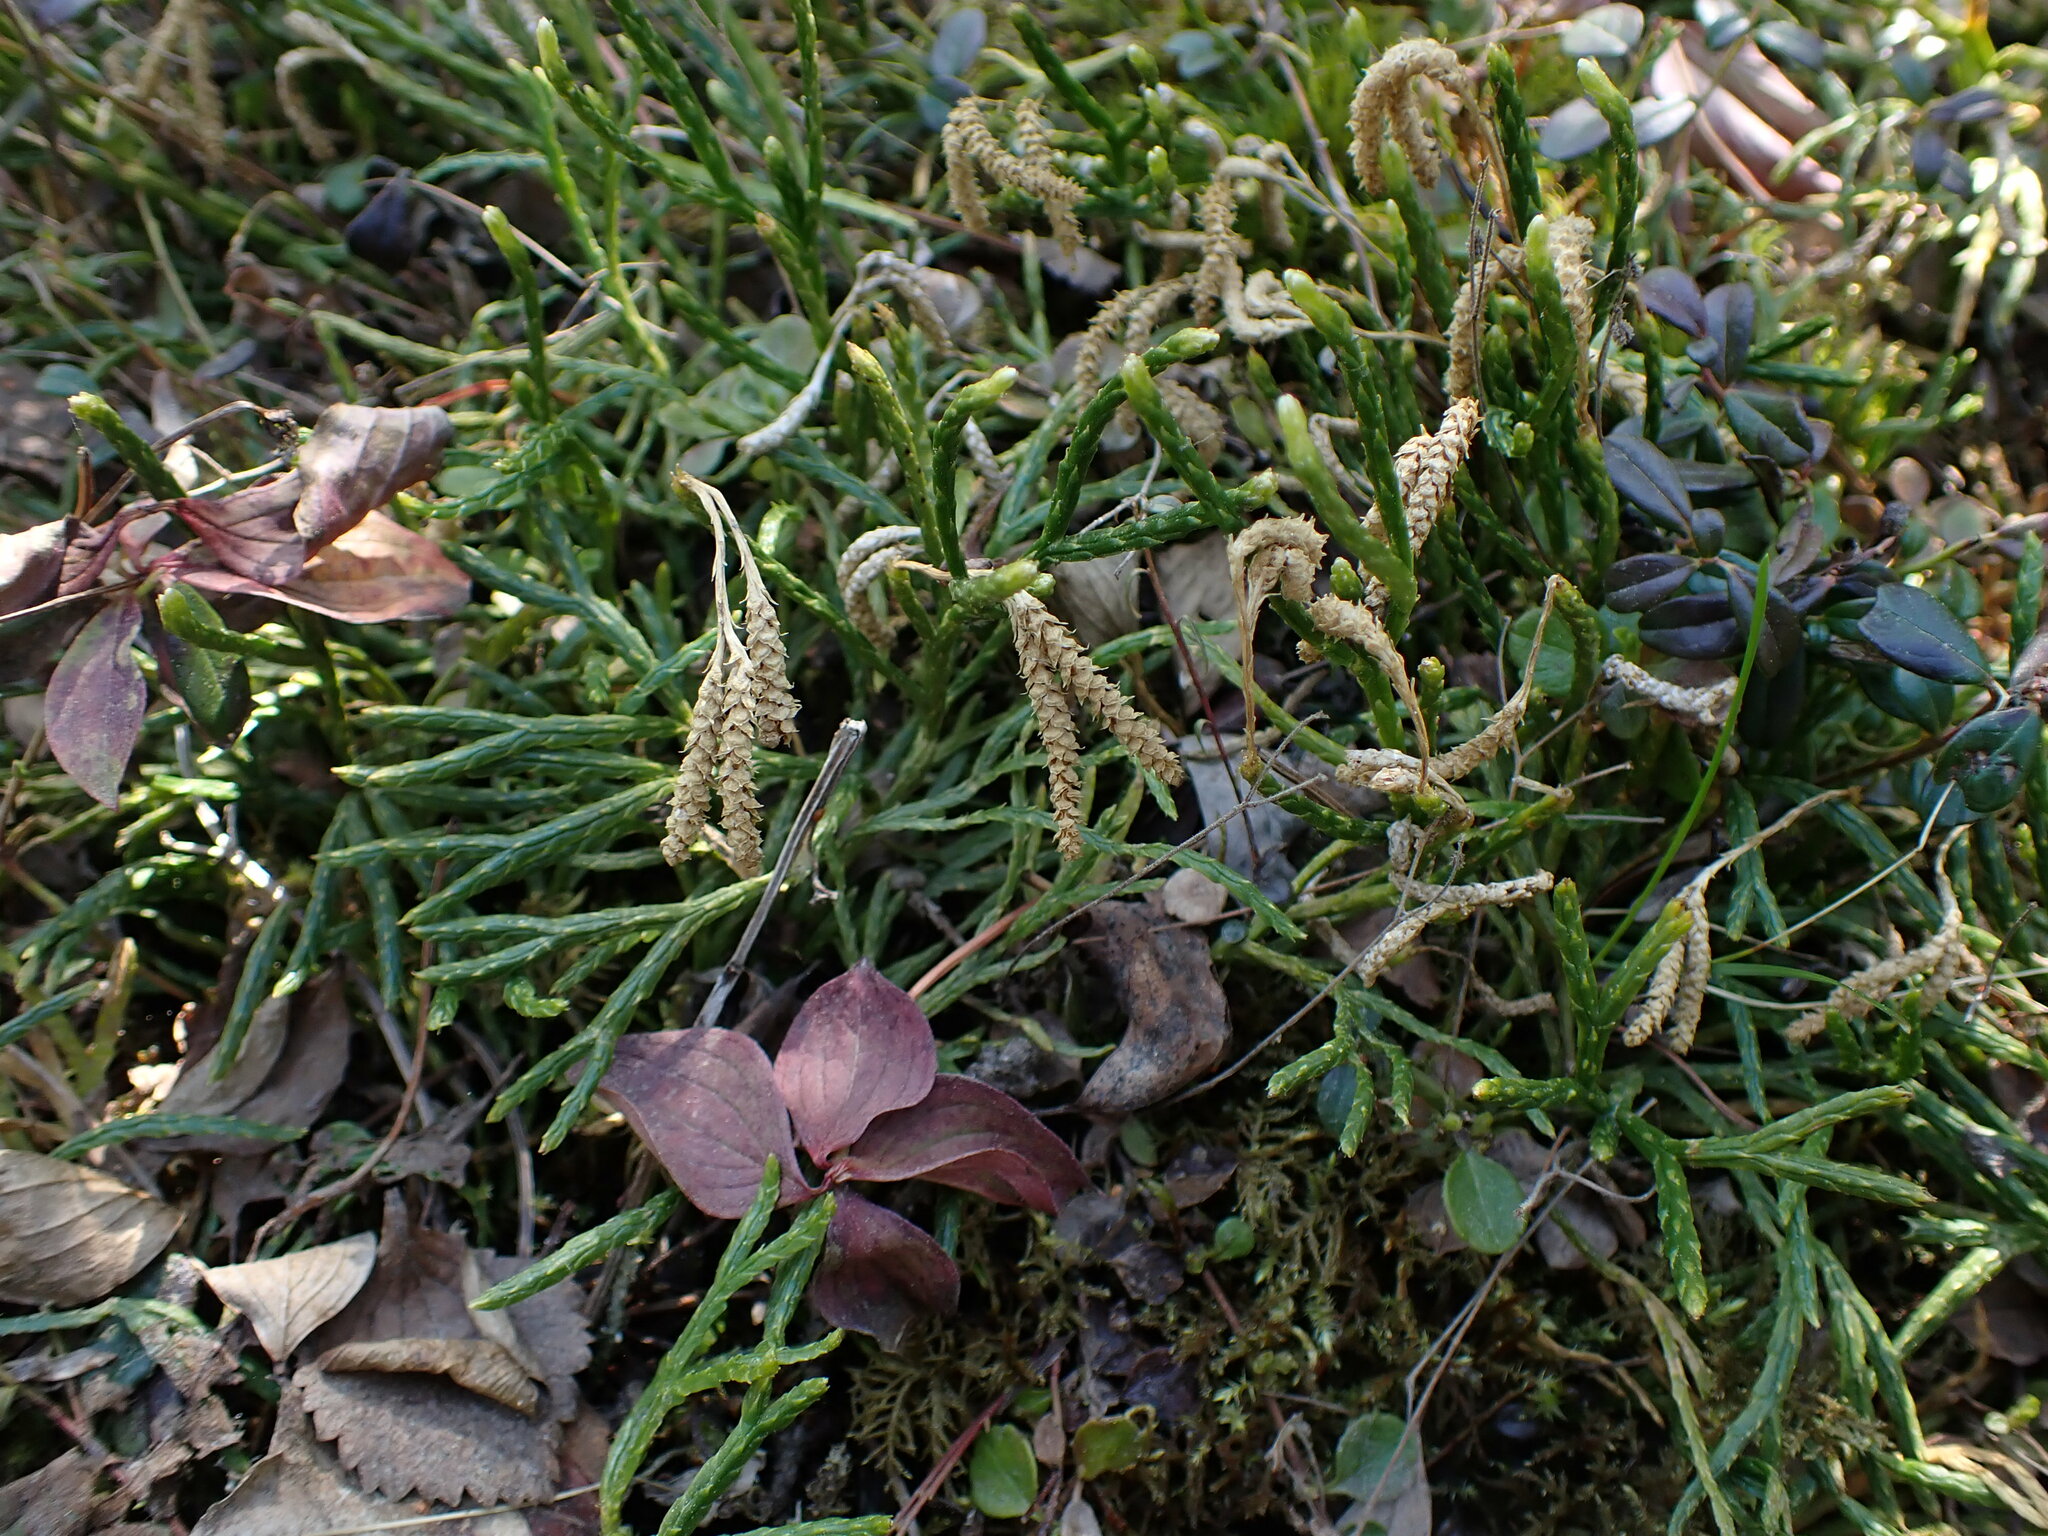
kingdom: Plantae
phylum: Tracheophyta
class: Lycopodiopsida
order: Lycopodiales
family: Lycopodiaceae
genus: Diphasiastrum
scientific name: Diphasiastrum complanatum
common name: Northern running-pine
